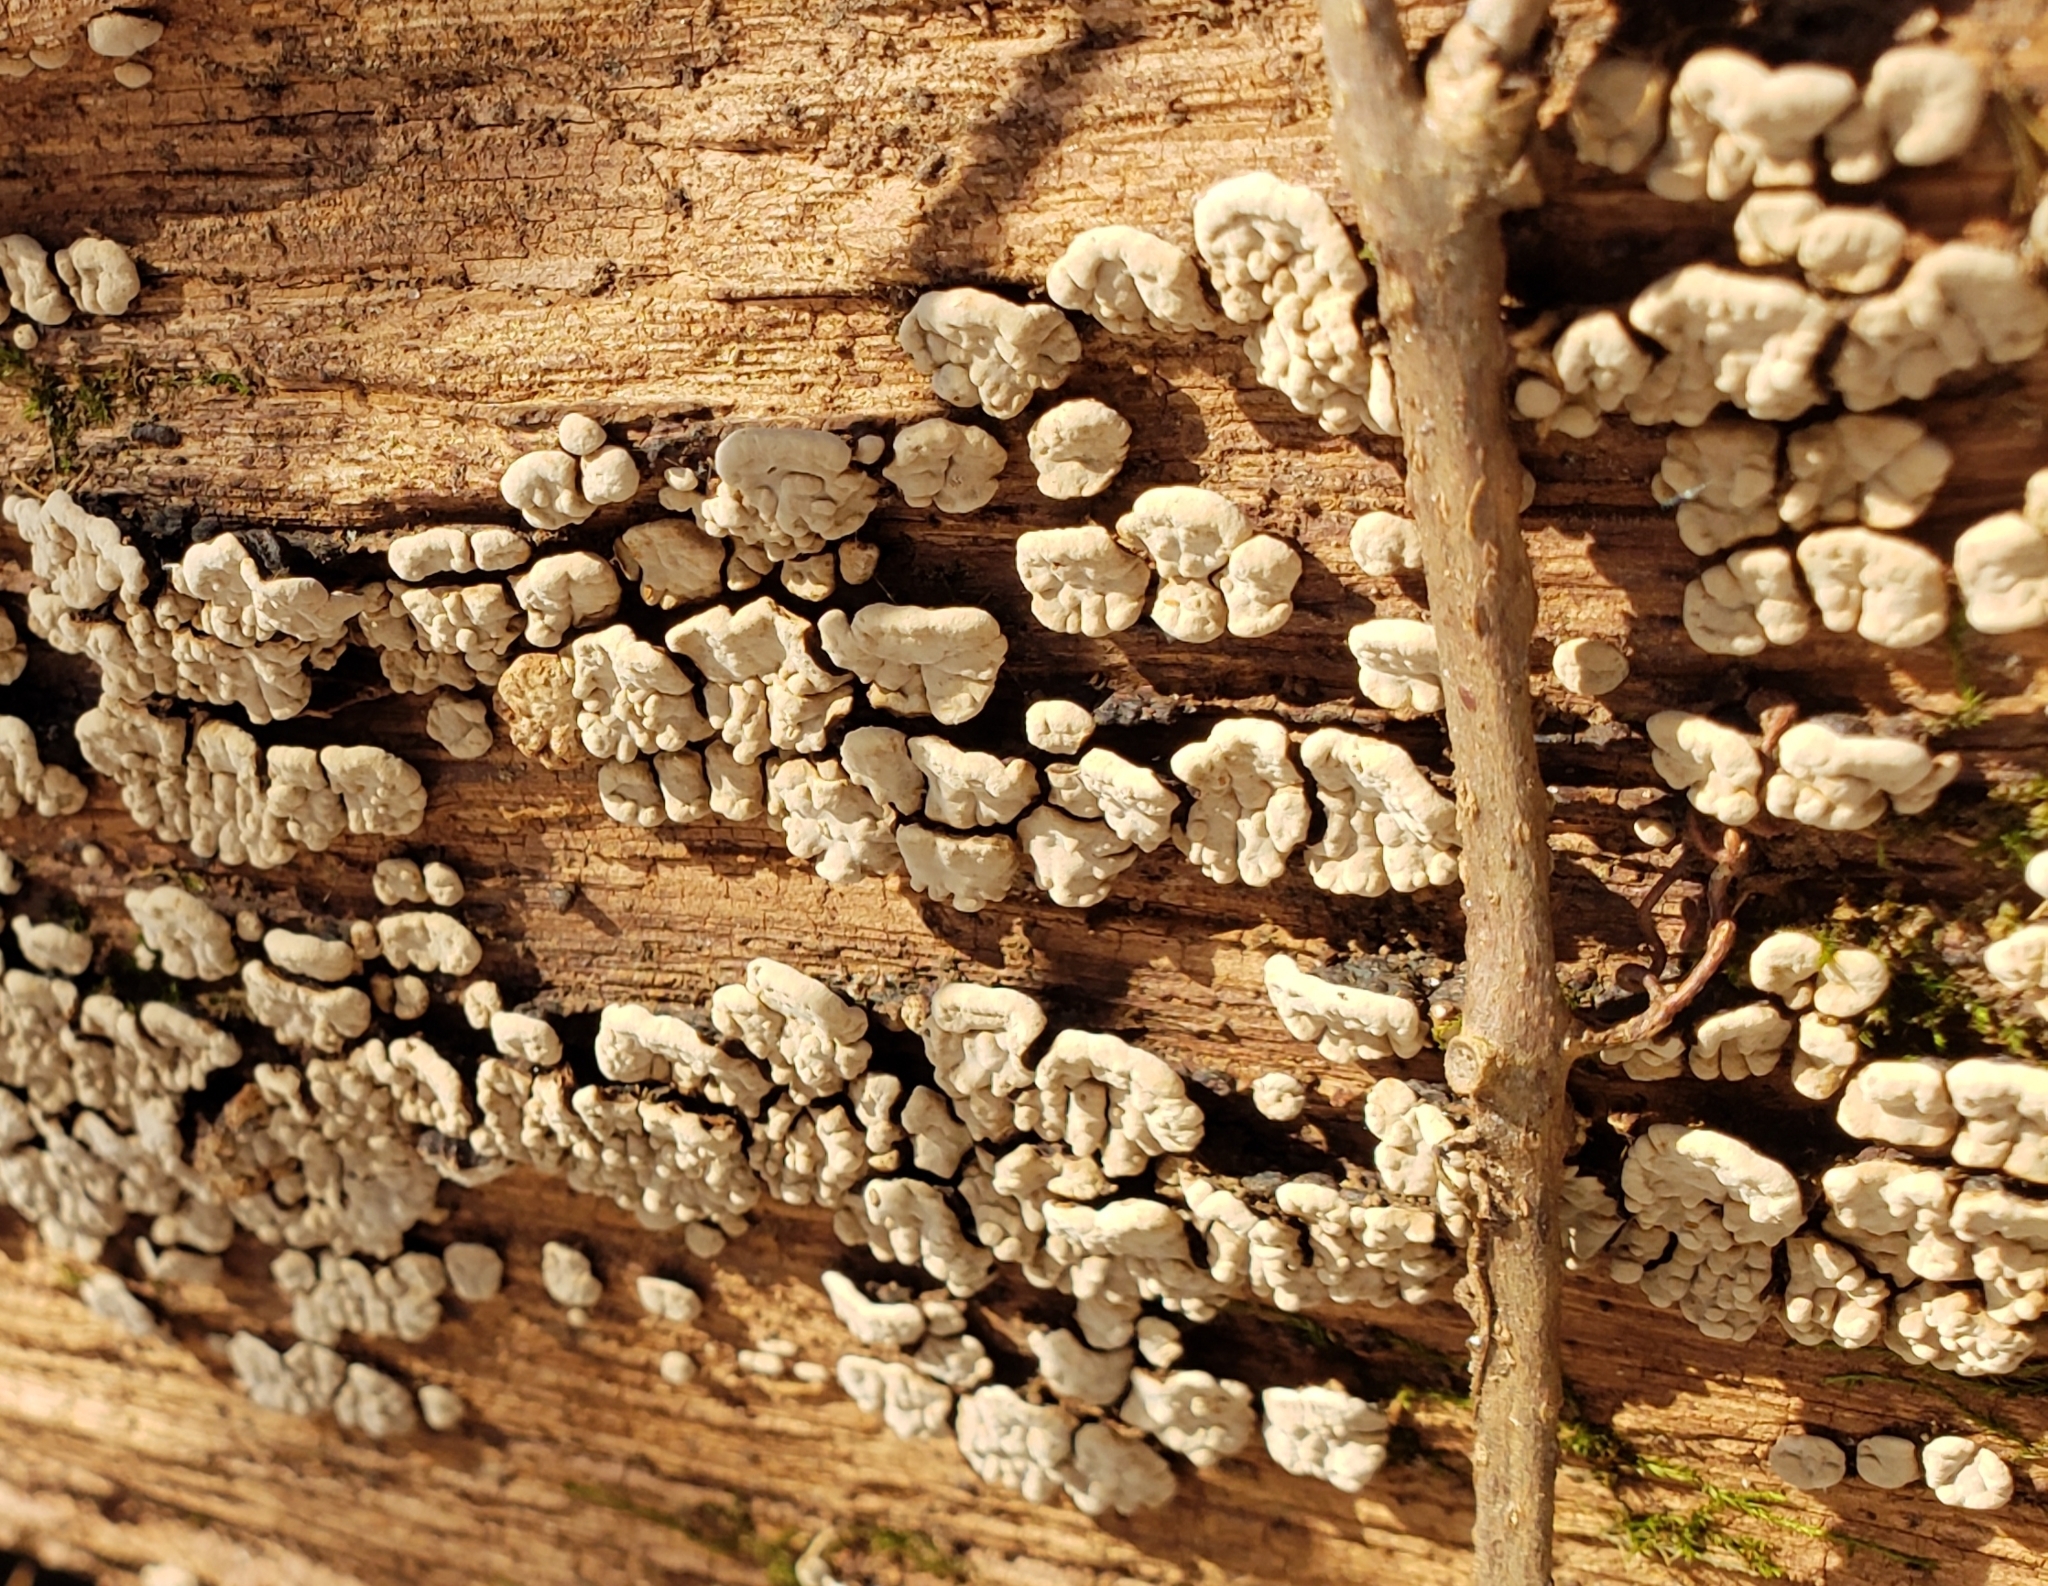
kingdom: Fungi
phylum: Basidiomycota
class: Agaricomycetes
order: Russulales
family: Stereaceae
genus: Xylobolus
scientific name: Xylobolus frustulatus
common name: Ceramic parchment
